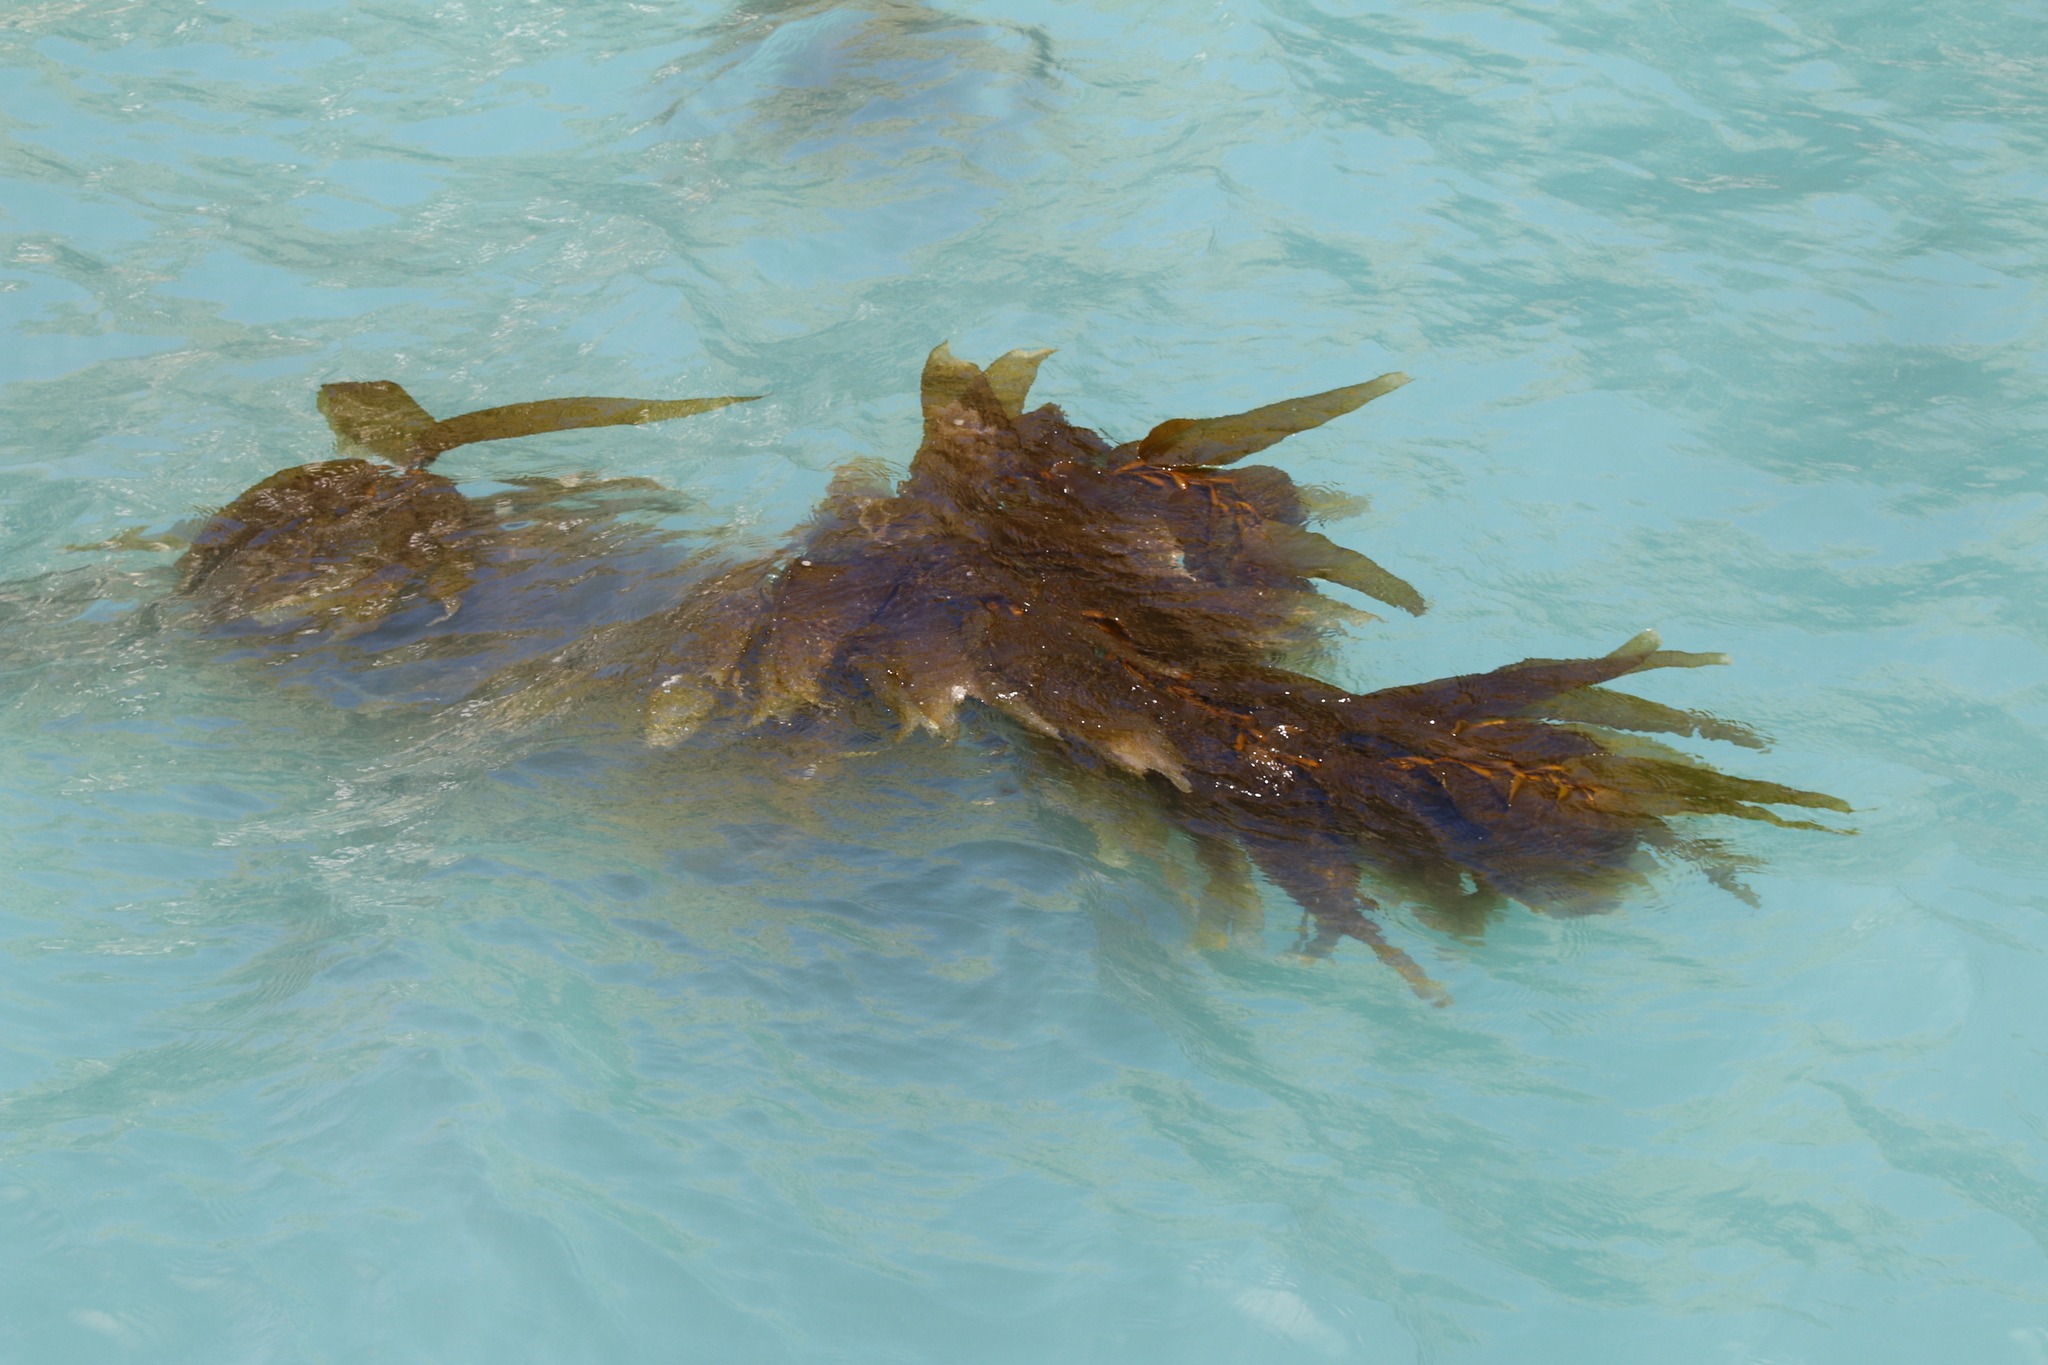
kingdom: Chromista
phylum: Ochrophyta
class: Phaeophyceae
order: Laminariales
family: Laminariaceae
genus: Macrocystis
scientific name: Macrocystis pyrifera
